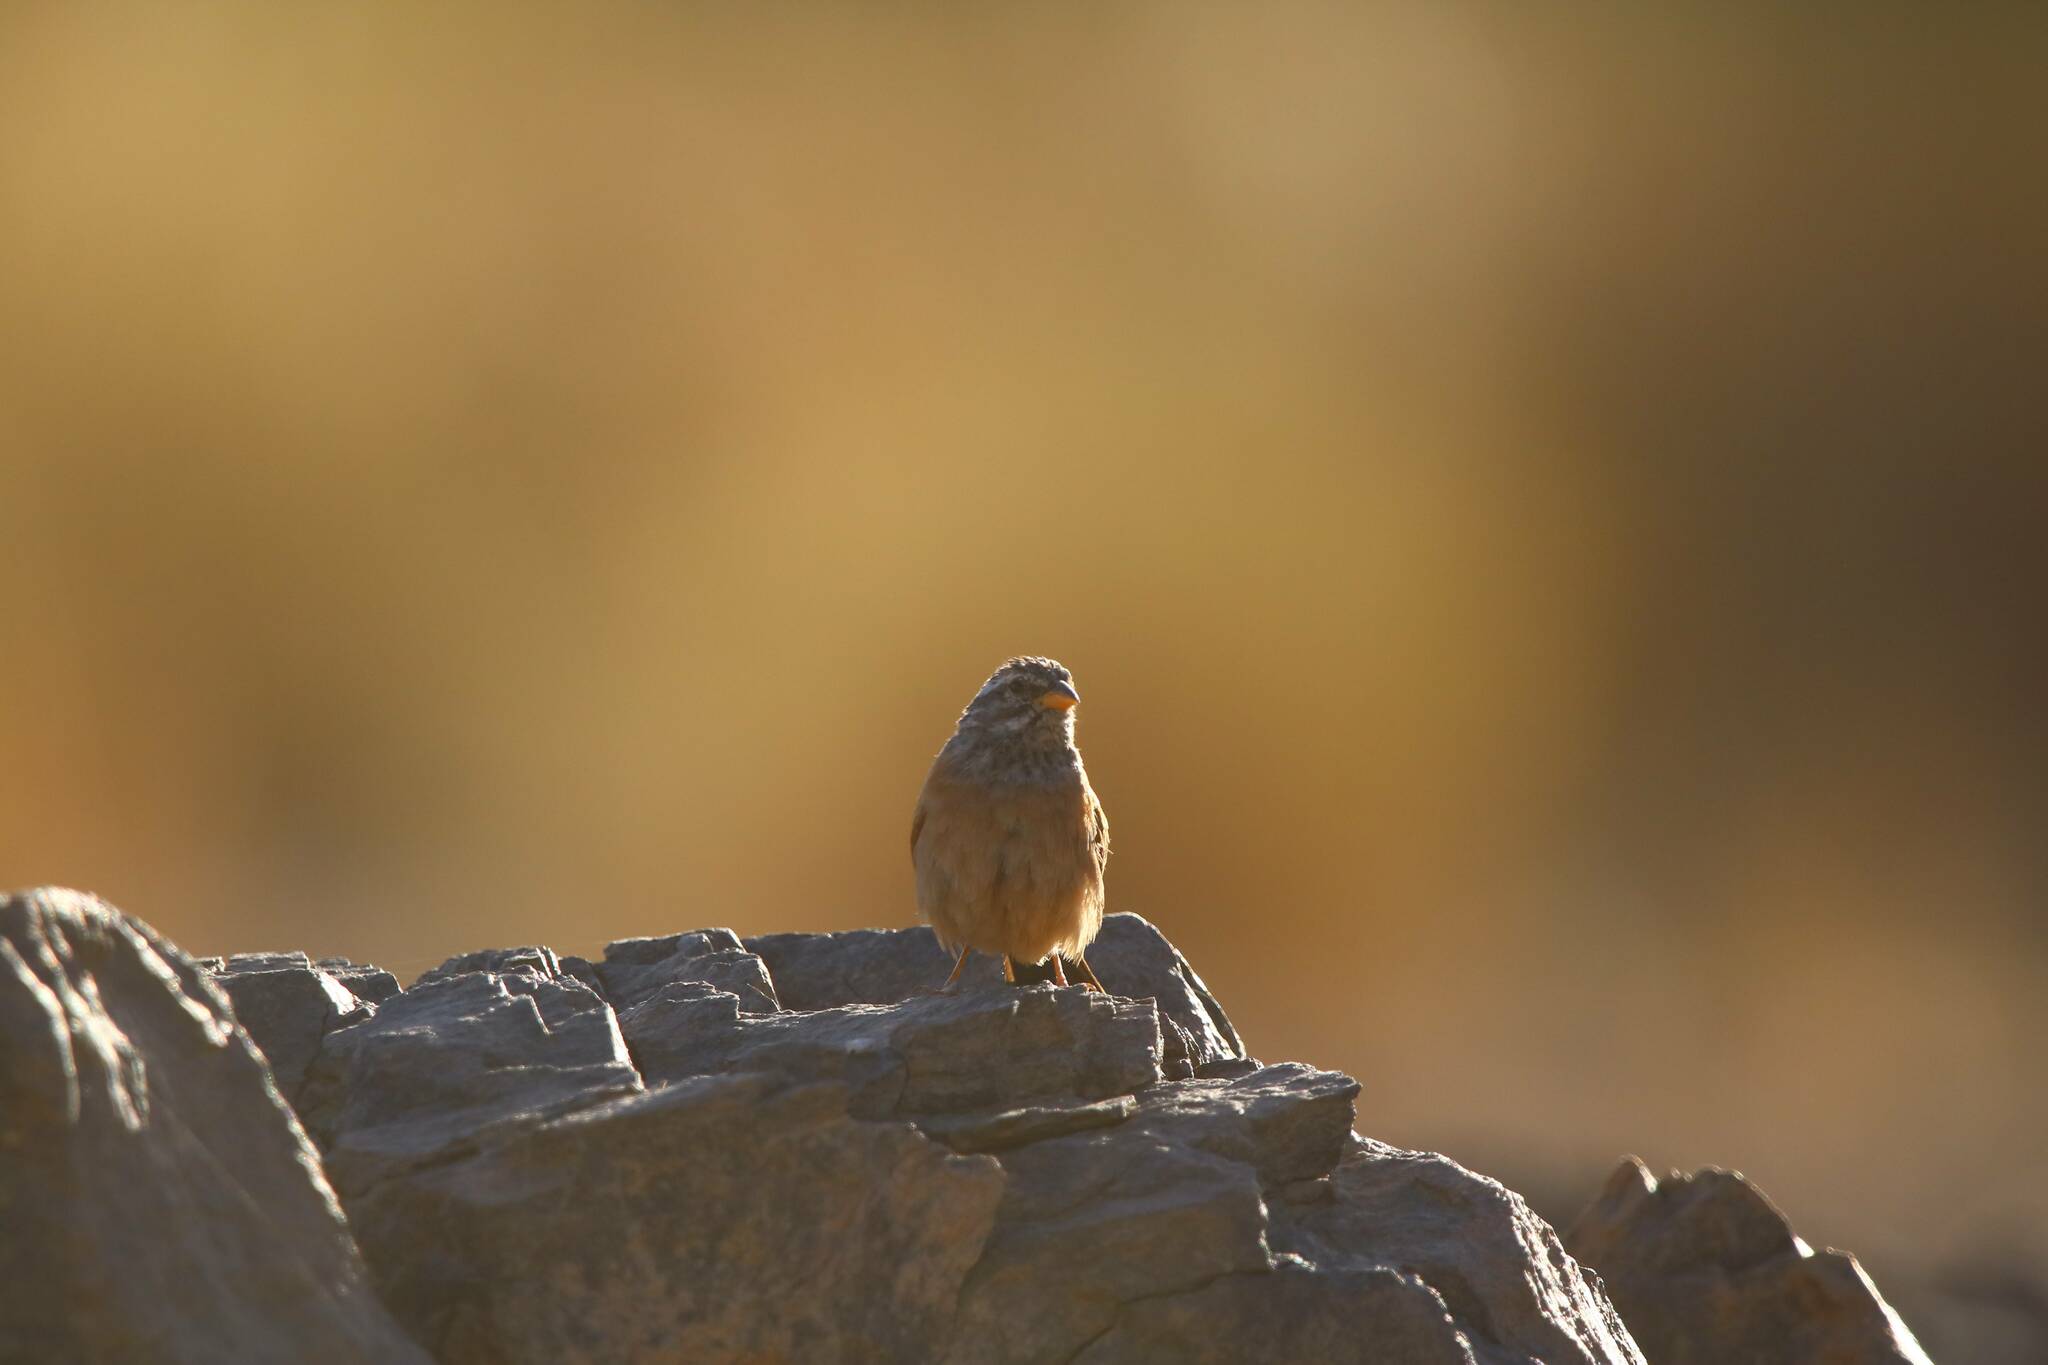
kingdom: Animalia
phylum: Chordata
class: Aves
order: Passeriformes
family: Emberizidae
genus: Emberiza
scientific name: Emberiza sahari
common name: House bunting
